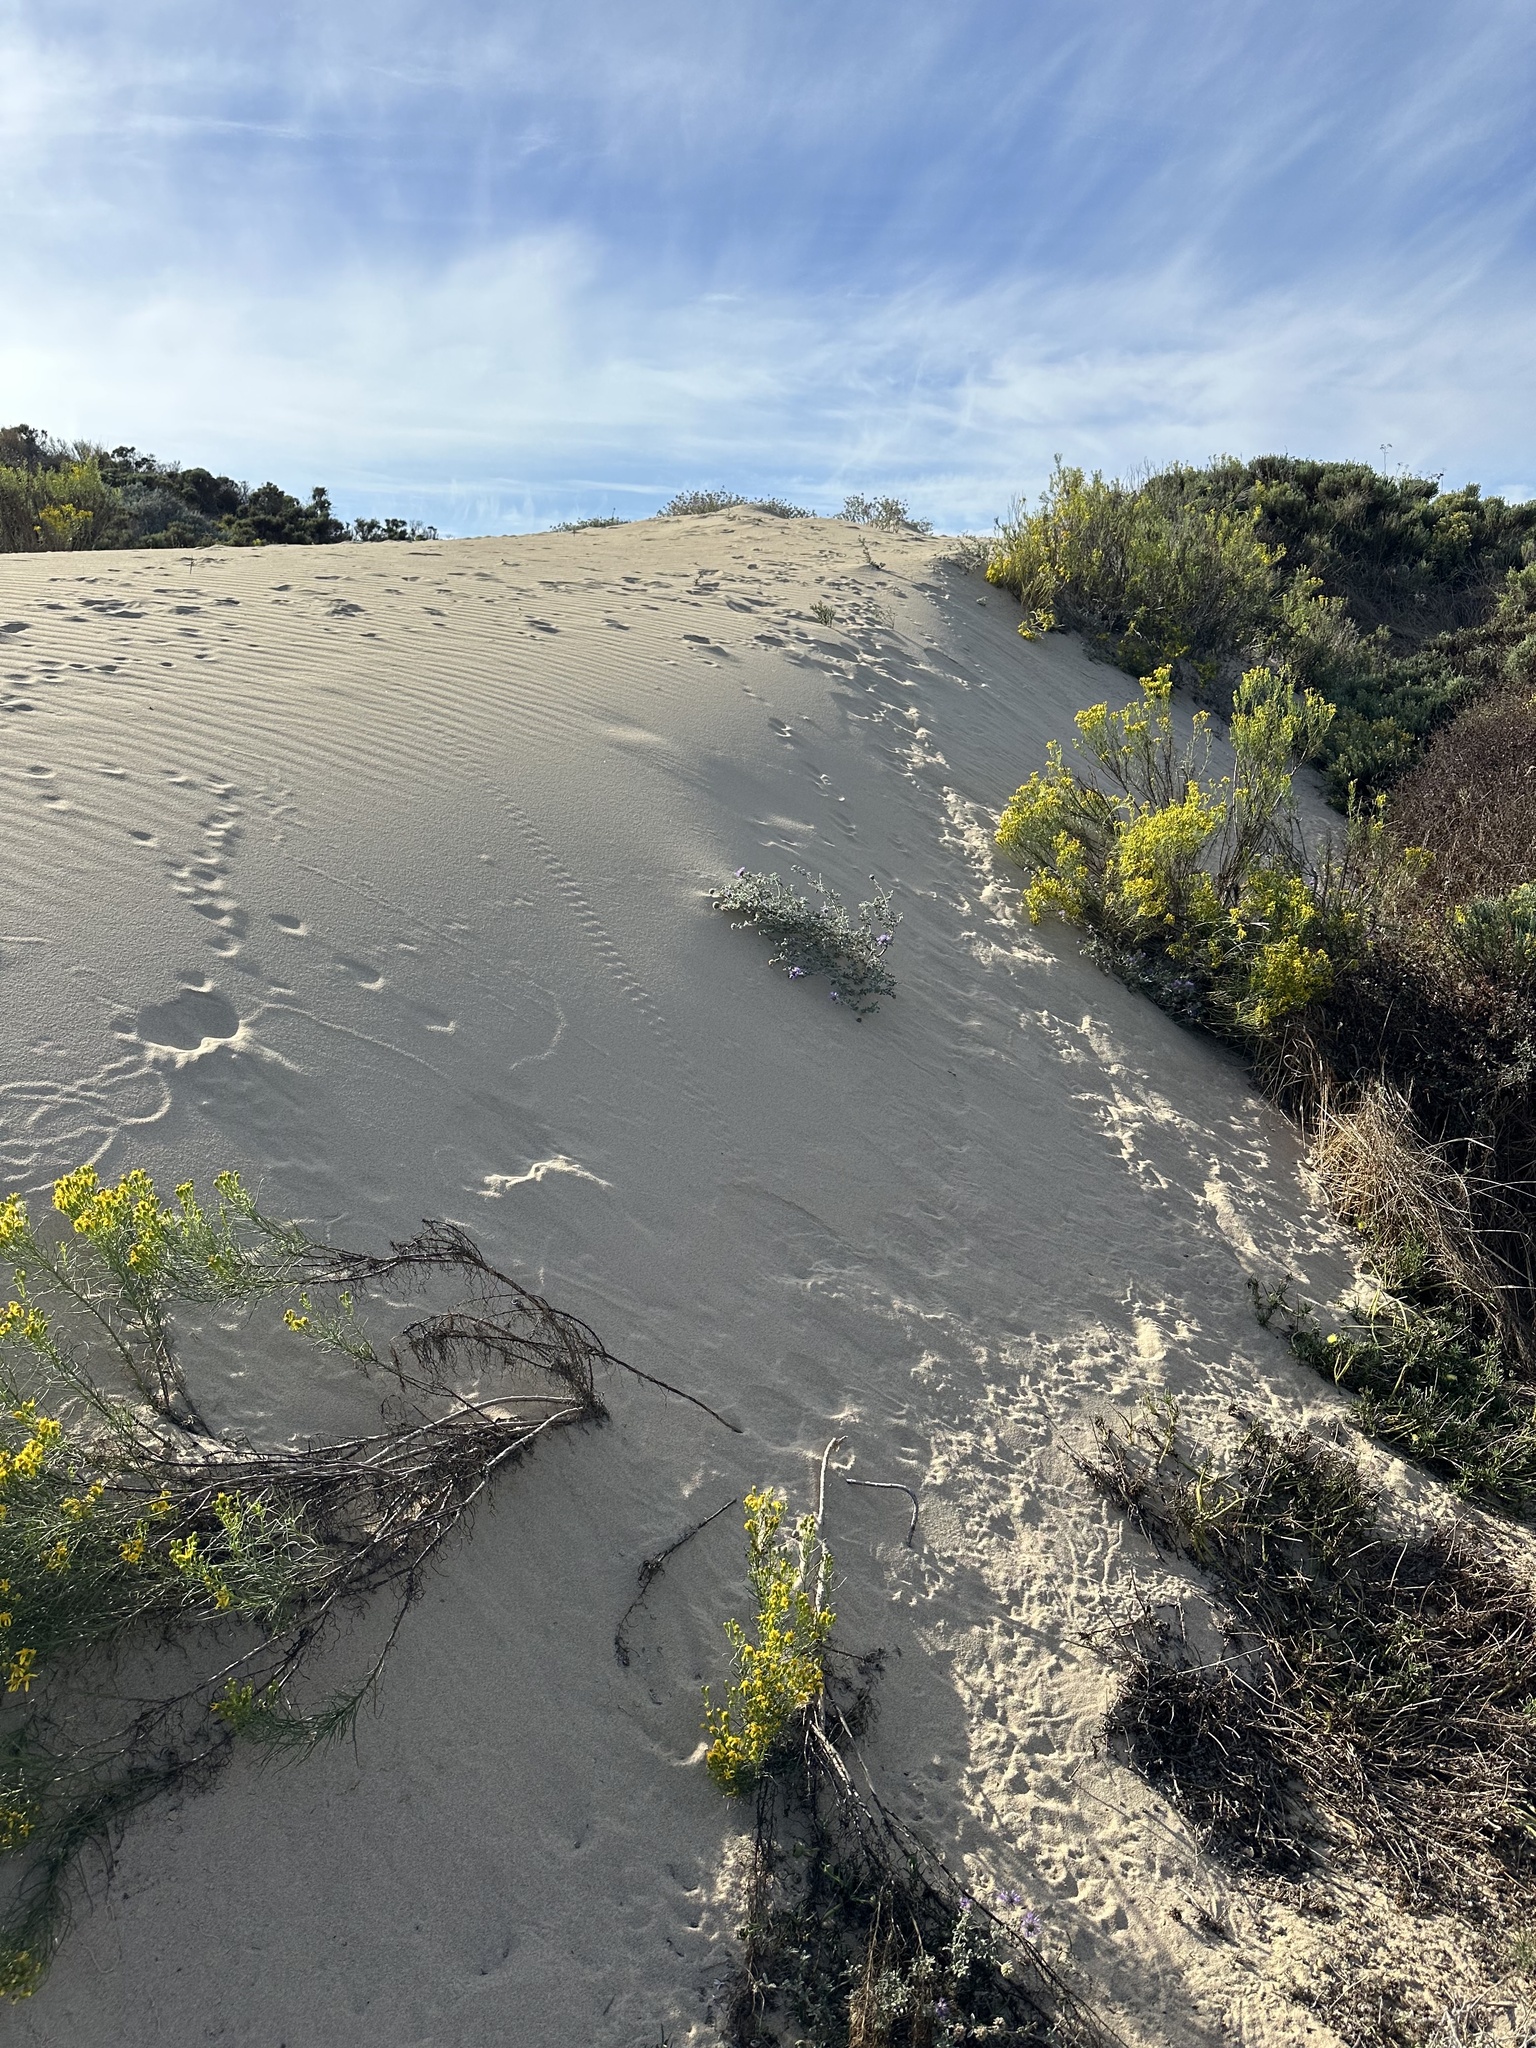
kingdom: Plantae
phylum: Tracheophyta
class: Magnoliopsida
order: Asterales
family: Asteraceae
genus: Senecio
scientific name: Senecio blochmaniae
